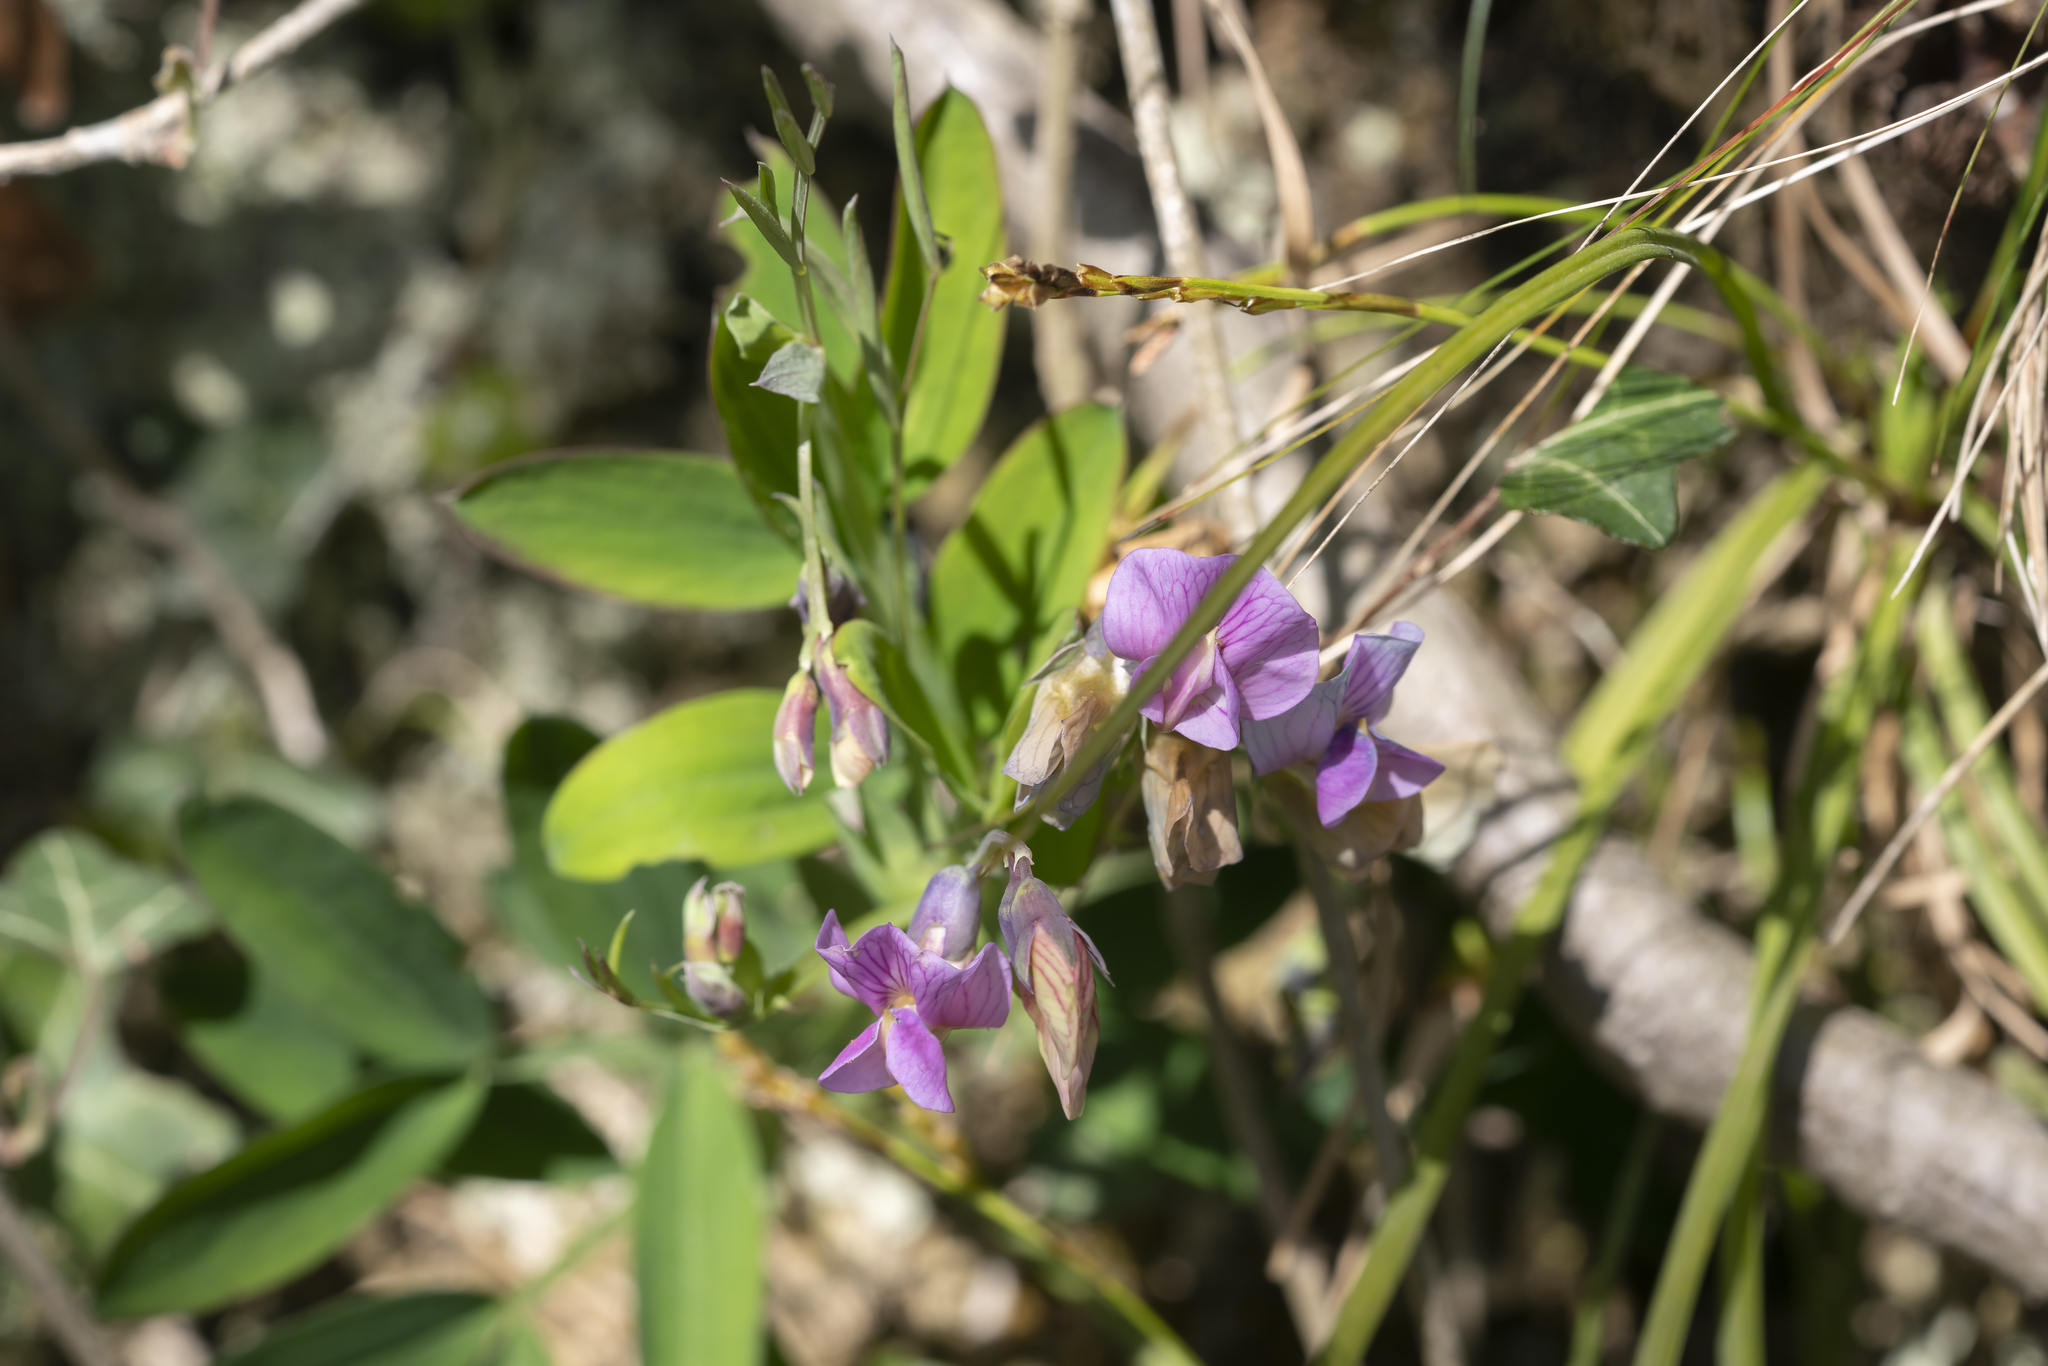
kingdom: Plantae
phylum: Tracheophyta
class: Magnoliopsida
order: Fabales
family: Fabaceae
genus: Lathyrus
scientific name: Lathyrus linifolius
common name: Bitter-vetch
